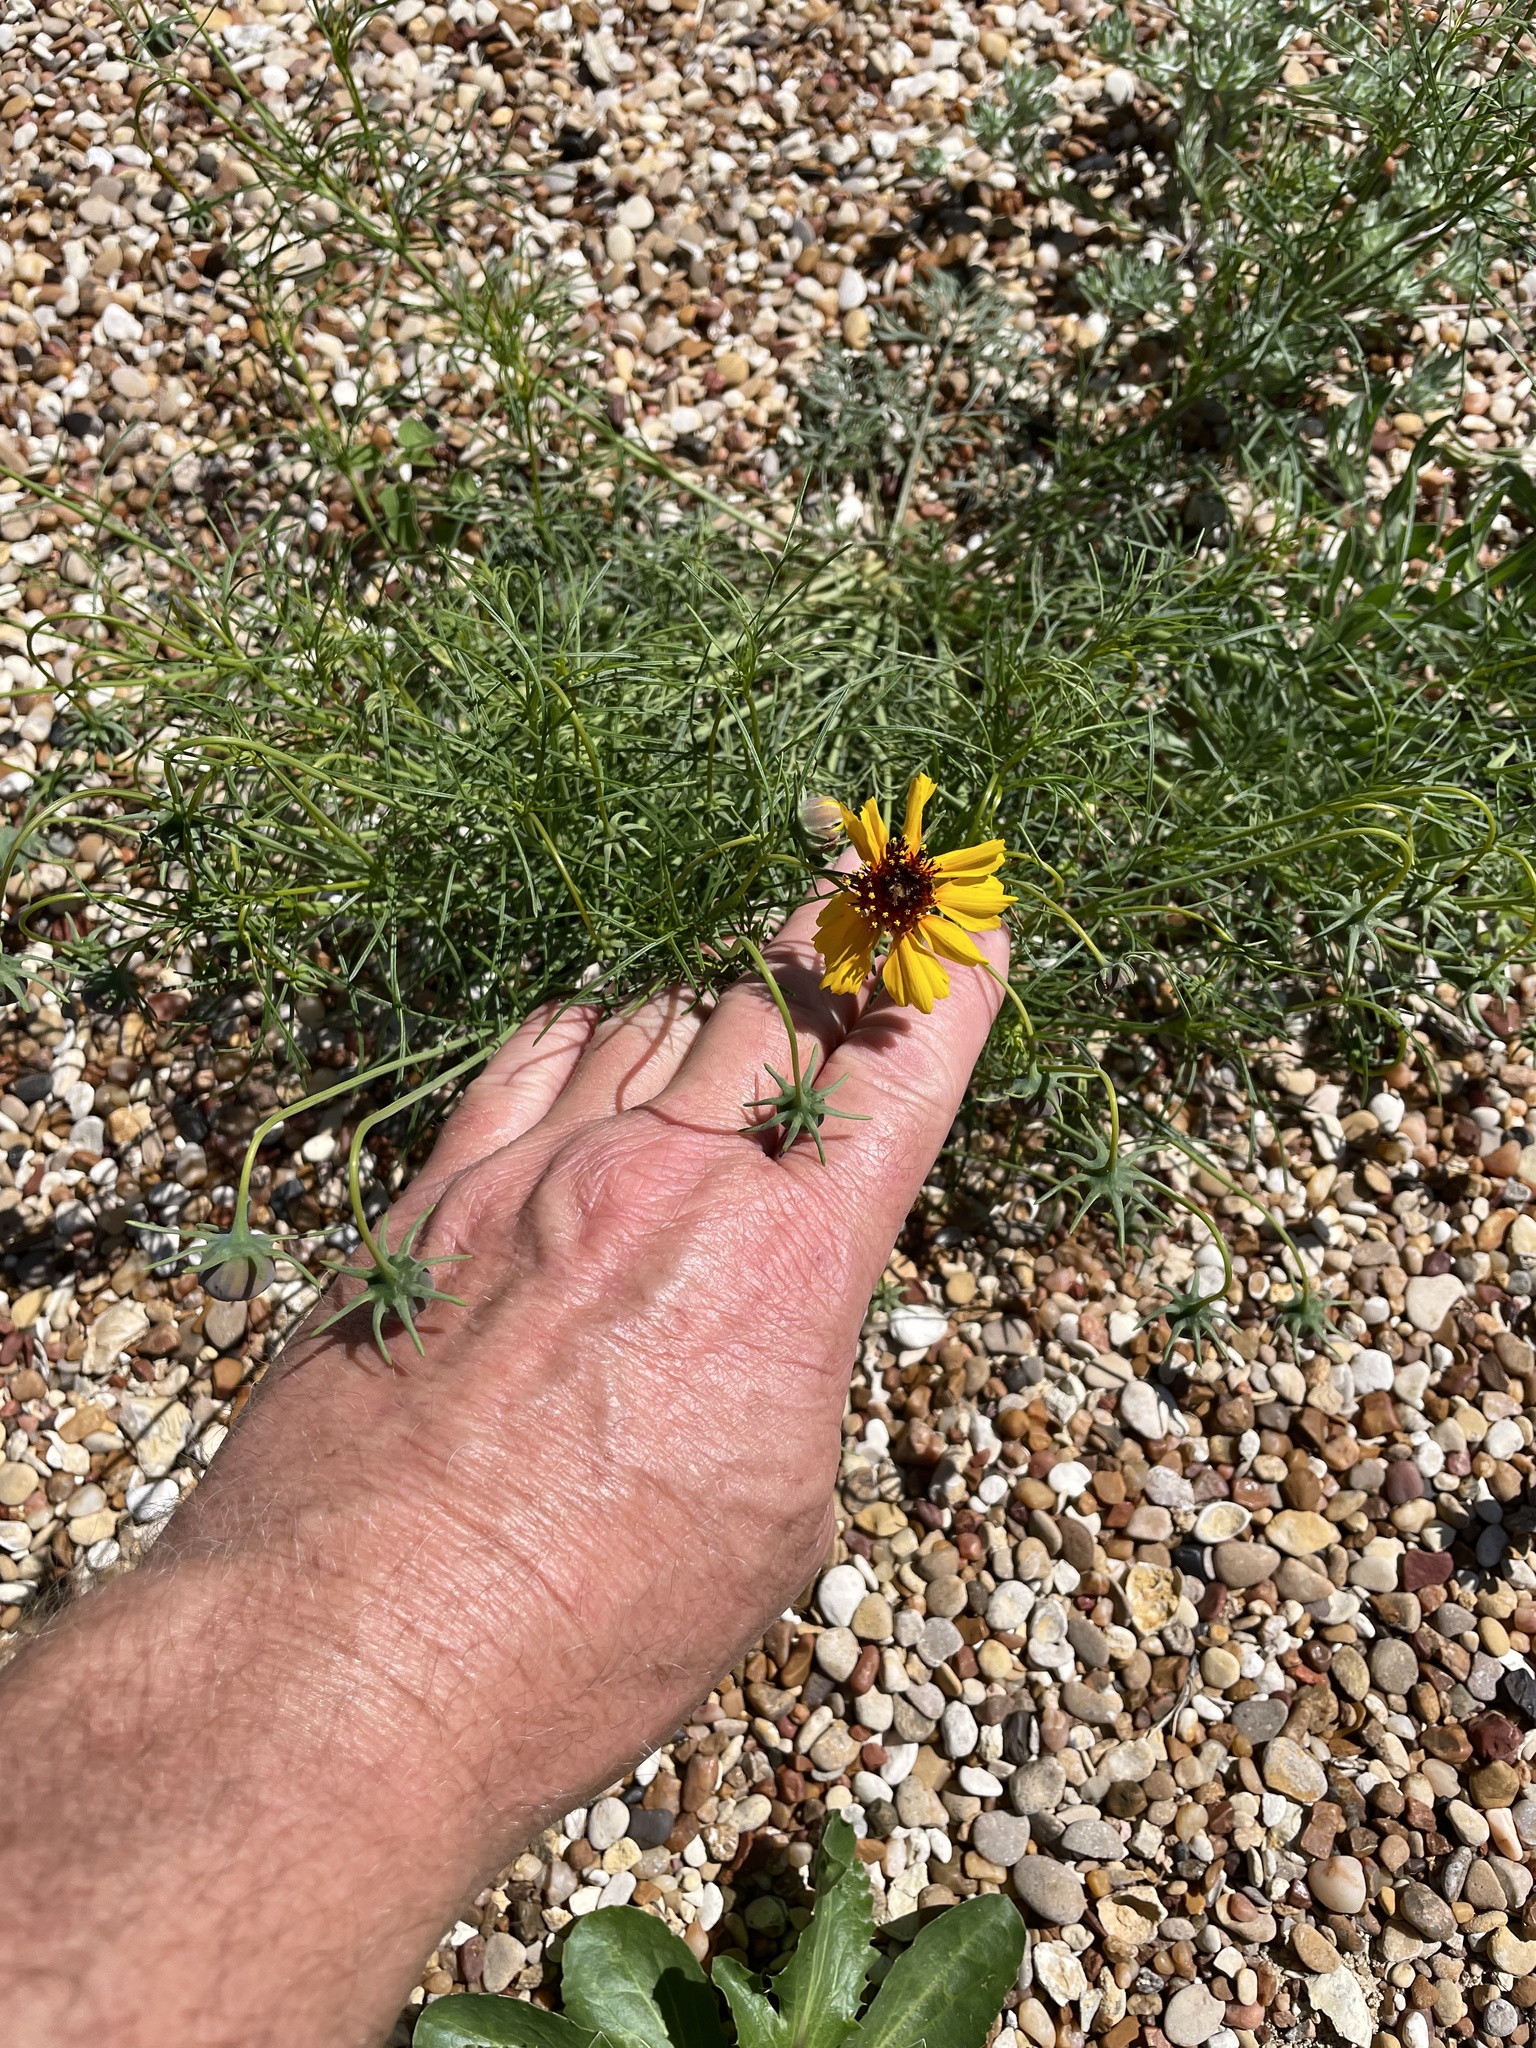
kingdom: Plantae
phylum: Tracheophyta
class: Magnoliopsida
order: Asterales
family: Asteraceae
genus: Thelesperma
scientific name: Thelesperma filifolium
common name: Stiff greenthread
